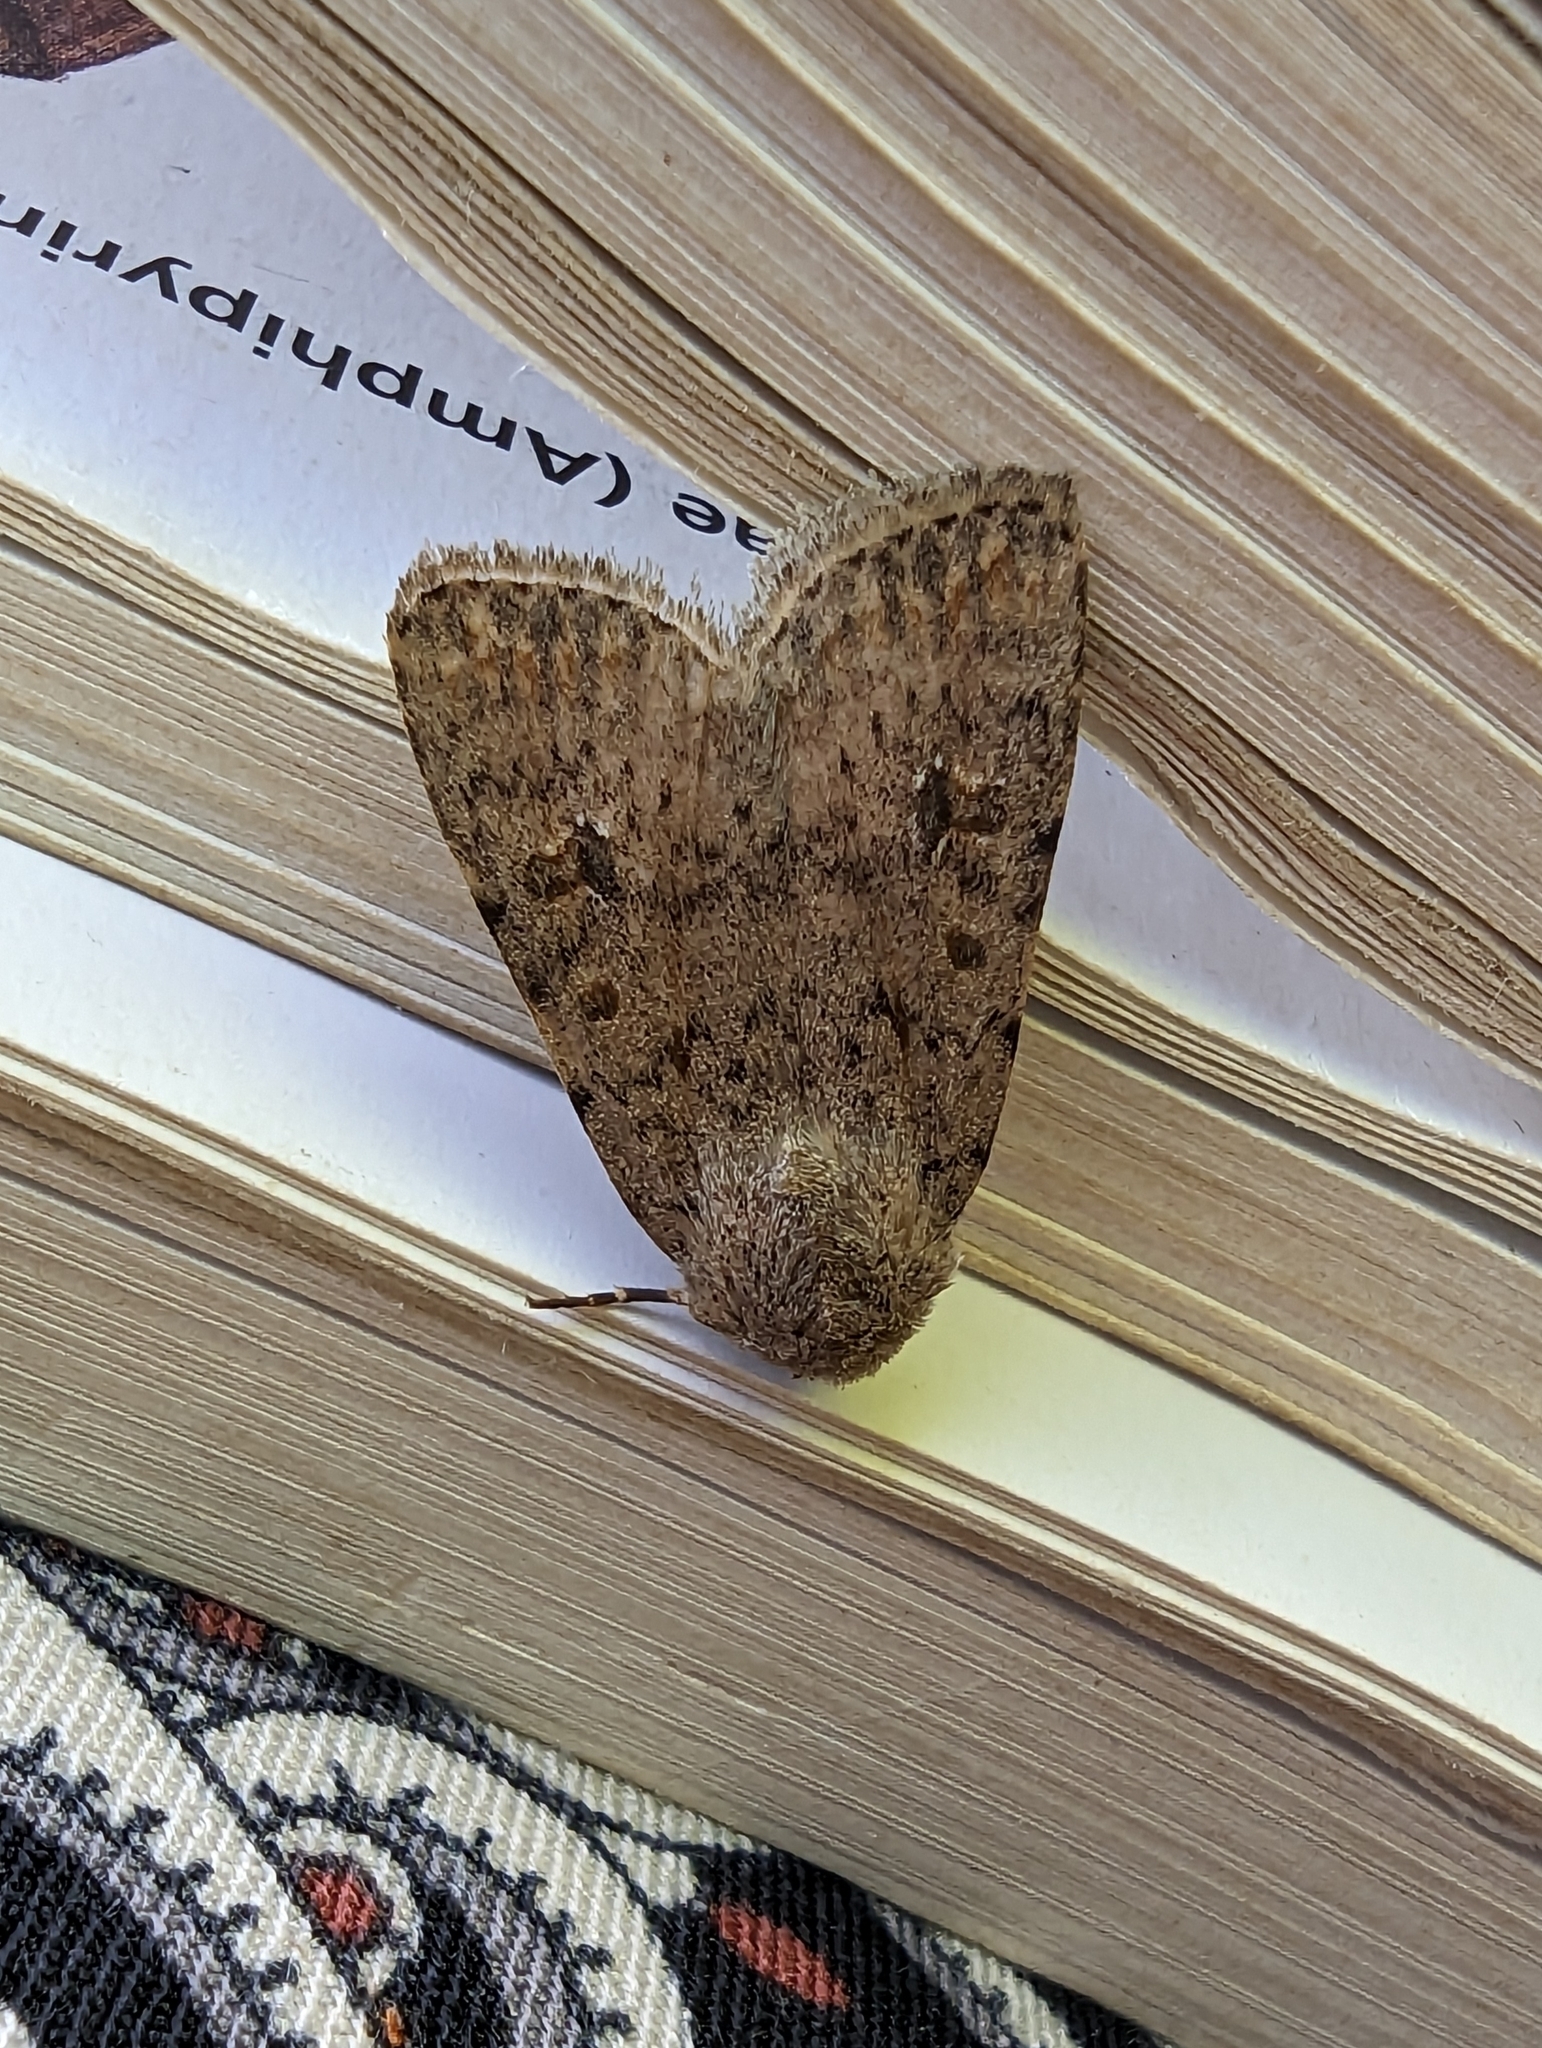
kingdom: Animalia
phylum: Arthropoda
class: Insecta
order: Lepidoptera
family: Noctuidae
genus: Caradrina
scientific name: Caradrina clavipalpis
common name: Pale mottled willow
